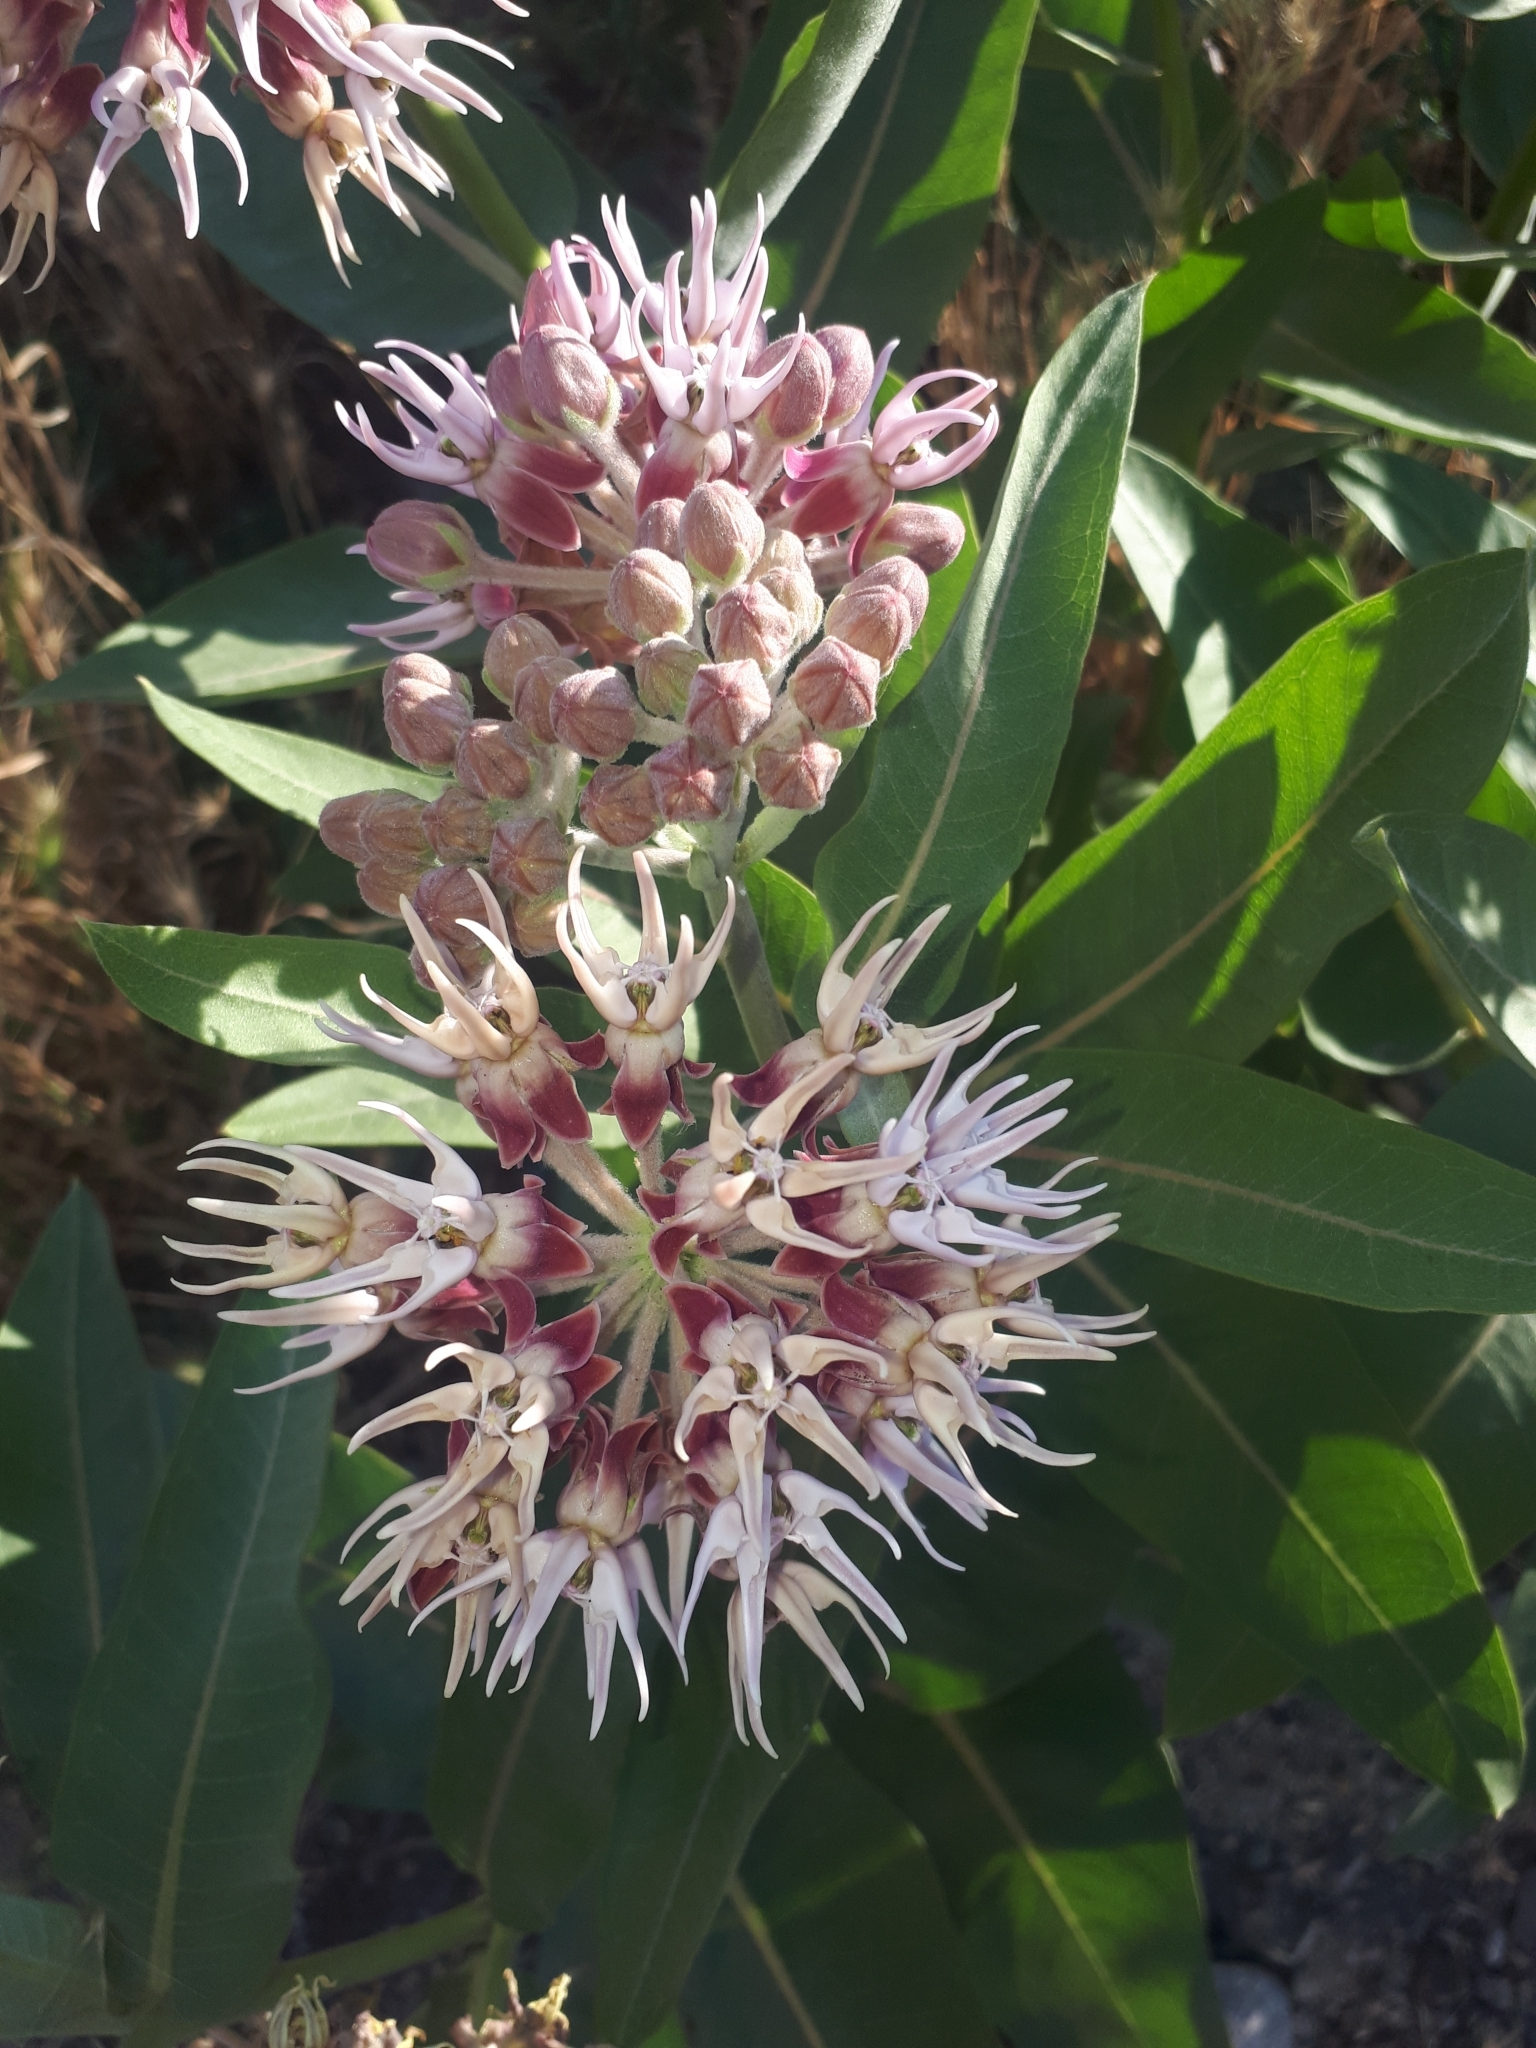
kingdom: Plantae
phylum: Tracheophyta
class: Magnoliopsida
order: Gentianales
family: Apocynaceae
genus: Asclepias
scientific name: Asclepias speciosa
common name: Showy milkweed
